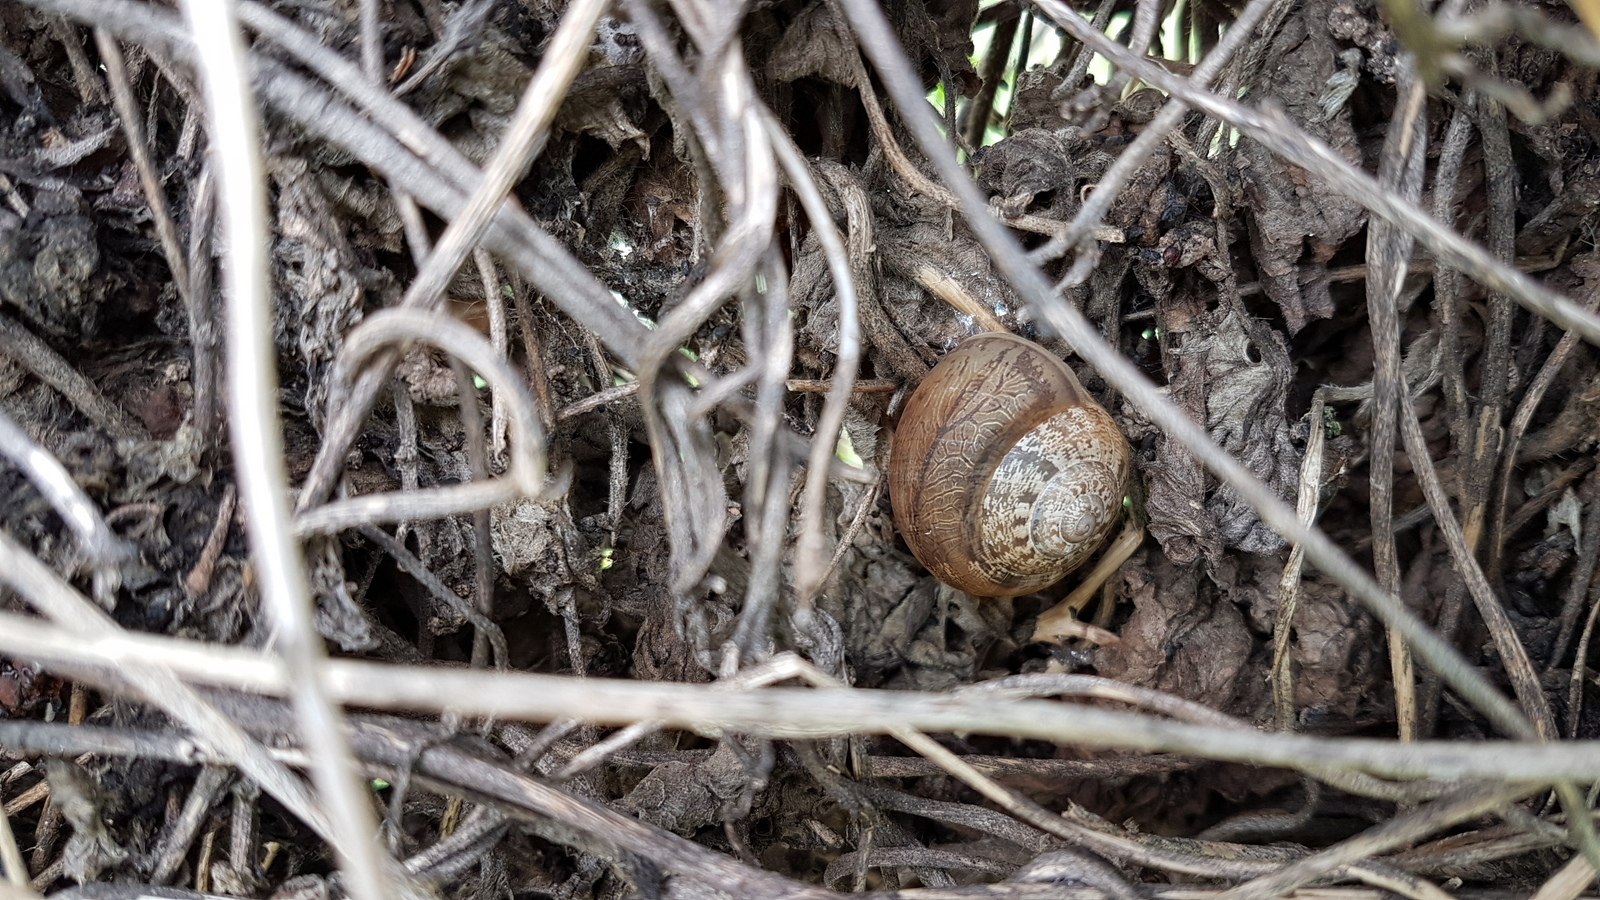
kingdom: Animalia
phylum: Mollusca
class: Gastropoda
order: Stylommatophora
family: Helicidae
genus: Eobania
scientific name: Eobania vermiculata
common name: Chocolateband snail
